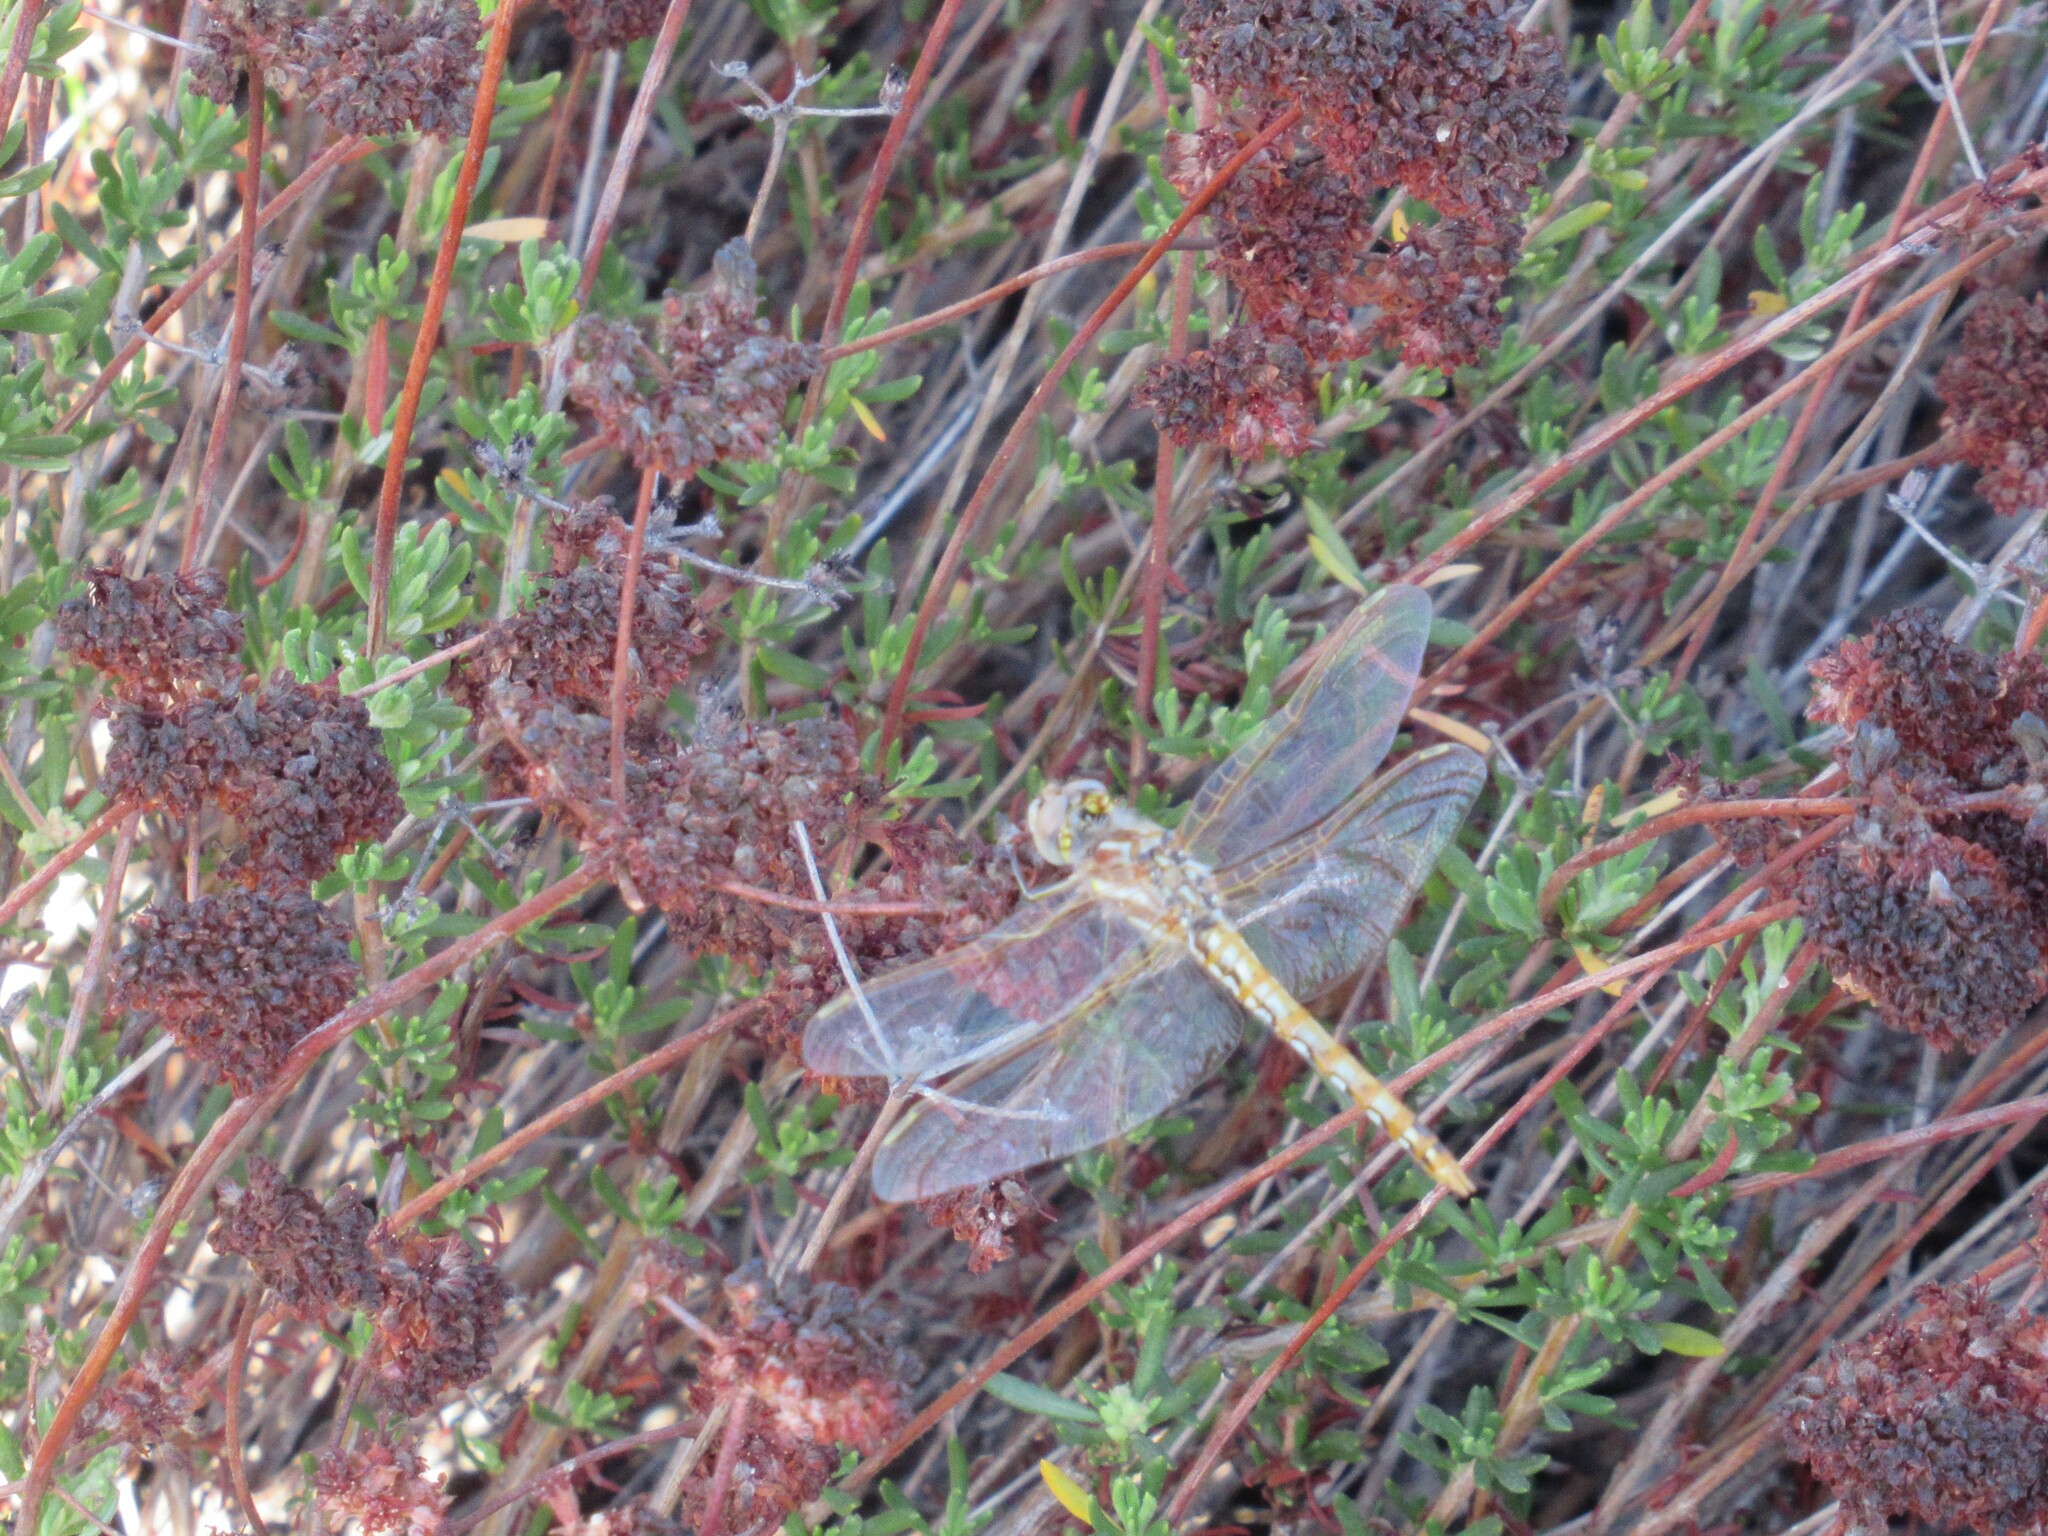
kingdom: Animalia
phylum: Arthropoda
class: Insecta
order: Odonata
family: Libellulidae
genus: Sympetrum
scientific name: Sympetrum corruptum
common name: Variegated meadowhawk
